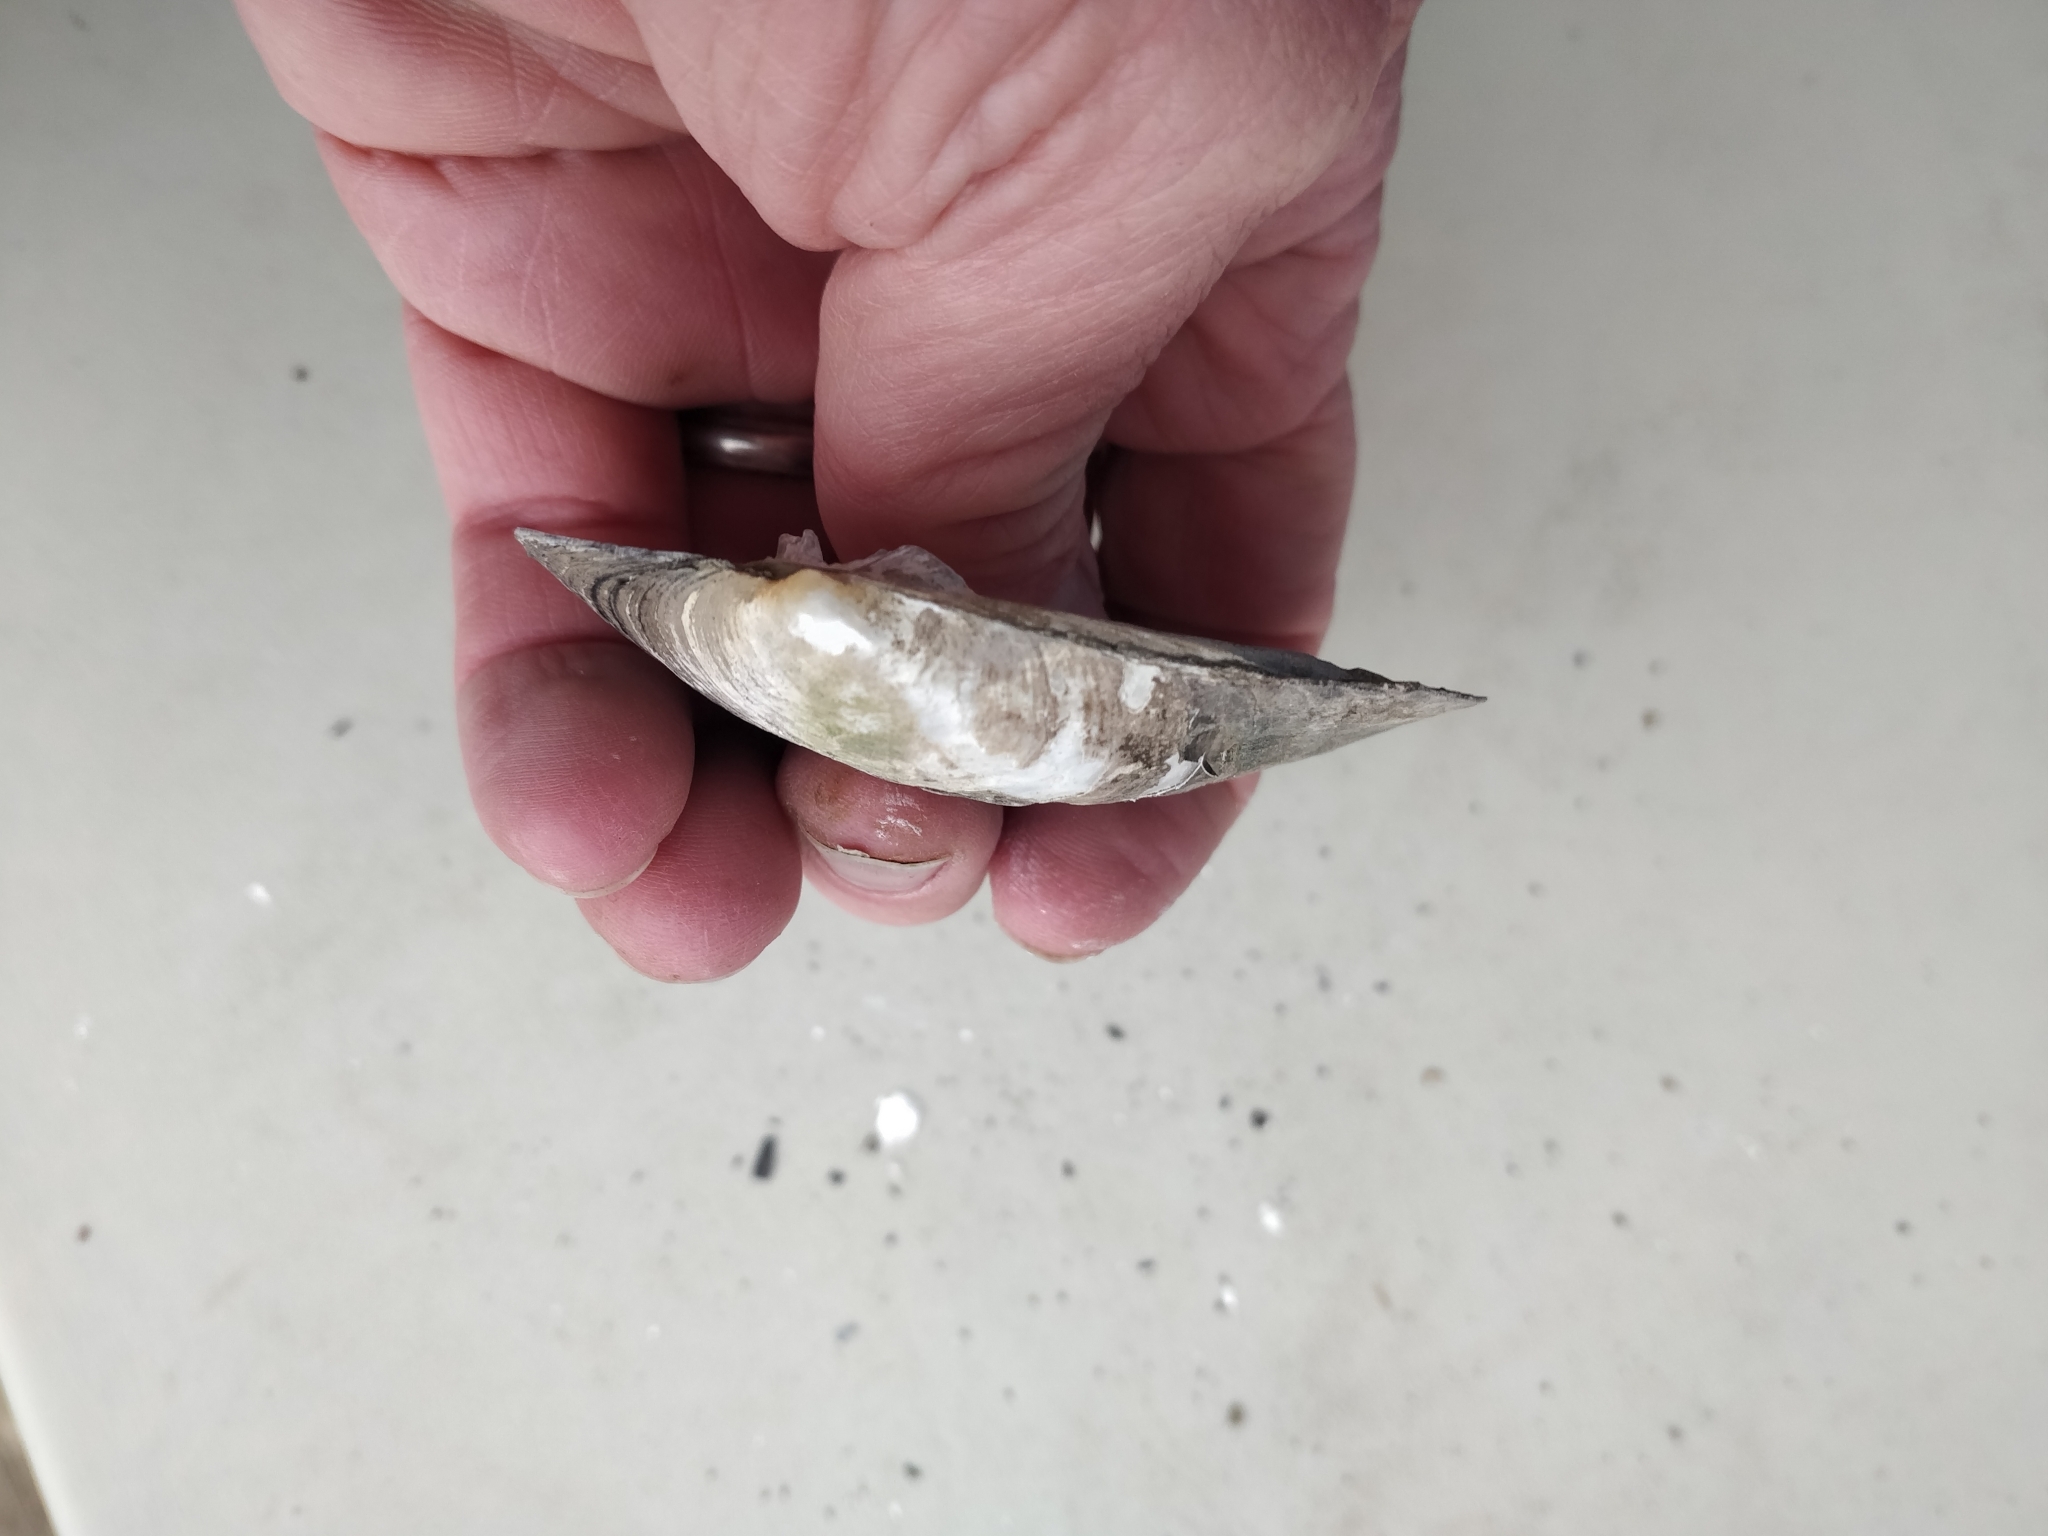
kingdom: Animalia
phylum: Mollusca
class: Bivalvia
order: Unionida
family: Unionidae
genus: Amblema
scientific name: Amblema plicata
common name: Threeridge
